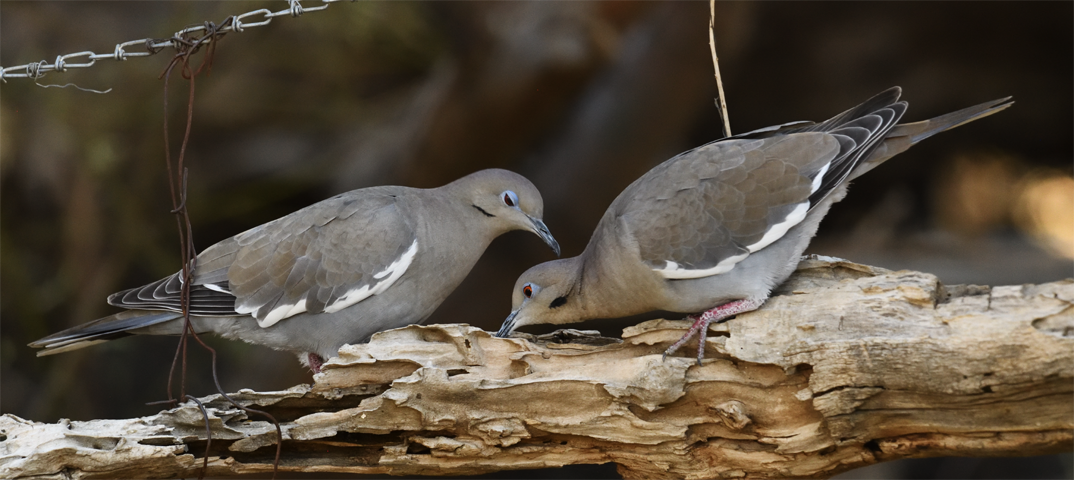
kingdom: Animalia
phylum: Chordata
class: Aves
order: Columbiformes
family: Columbidae
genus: Zenaida
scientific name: Zenaida asiatica
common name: White-winged dove
